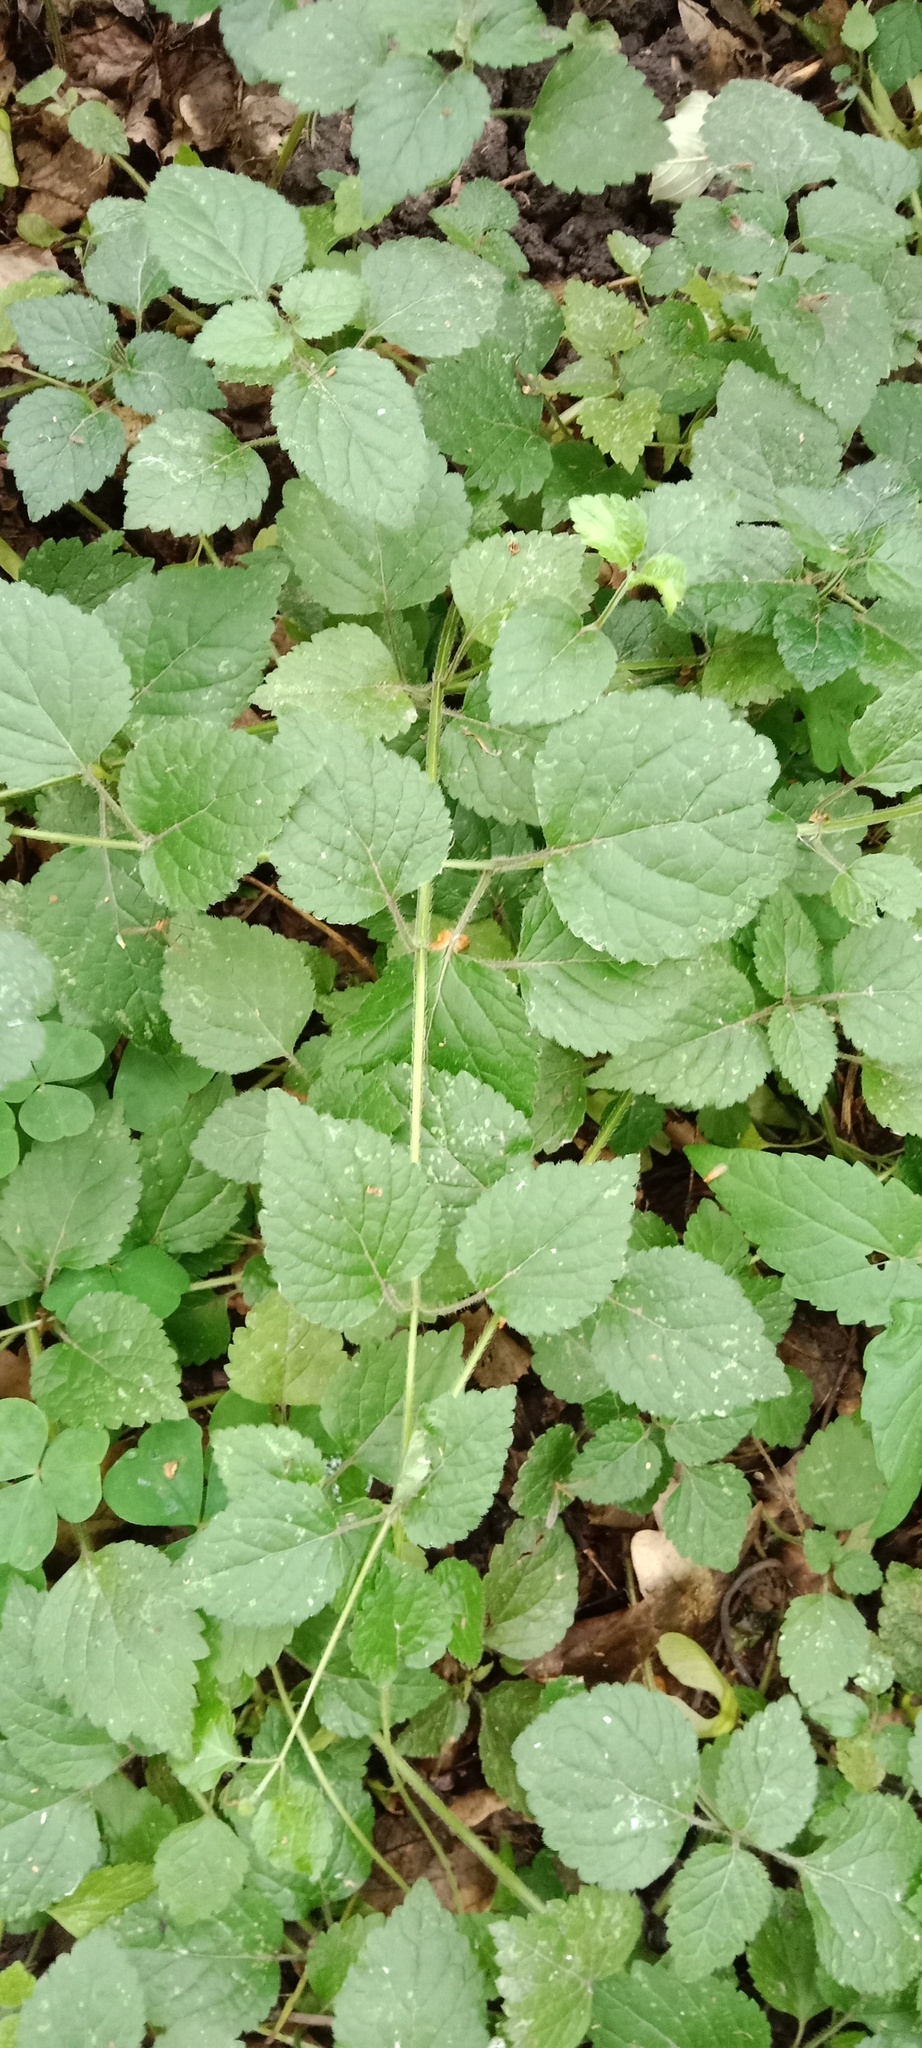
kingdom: Plantae
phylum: Tracheophyta
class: Magnoliopsida
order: Lamiales
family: Lamiaceae
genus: Stachys
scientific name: Stachys sylvatica
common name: Hedge woundwort
